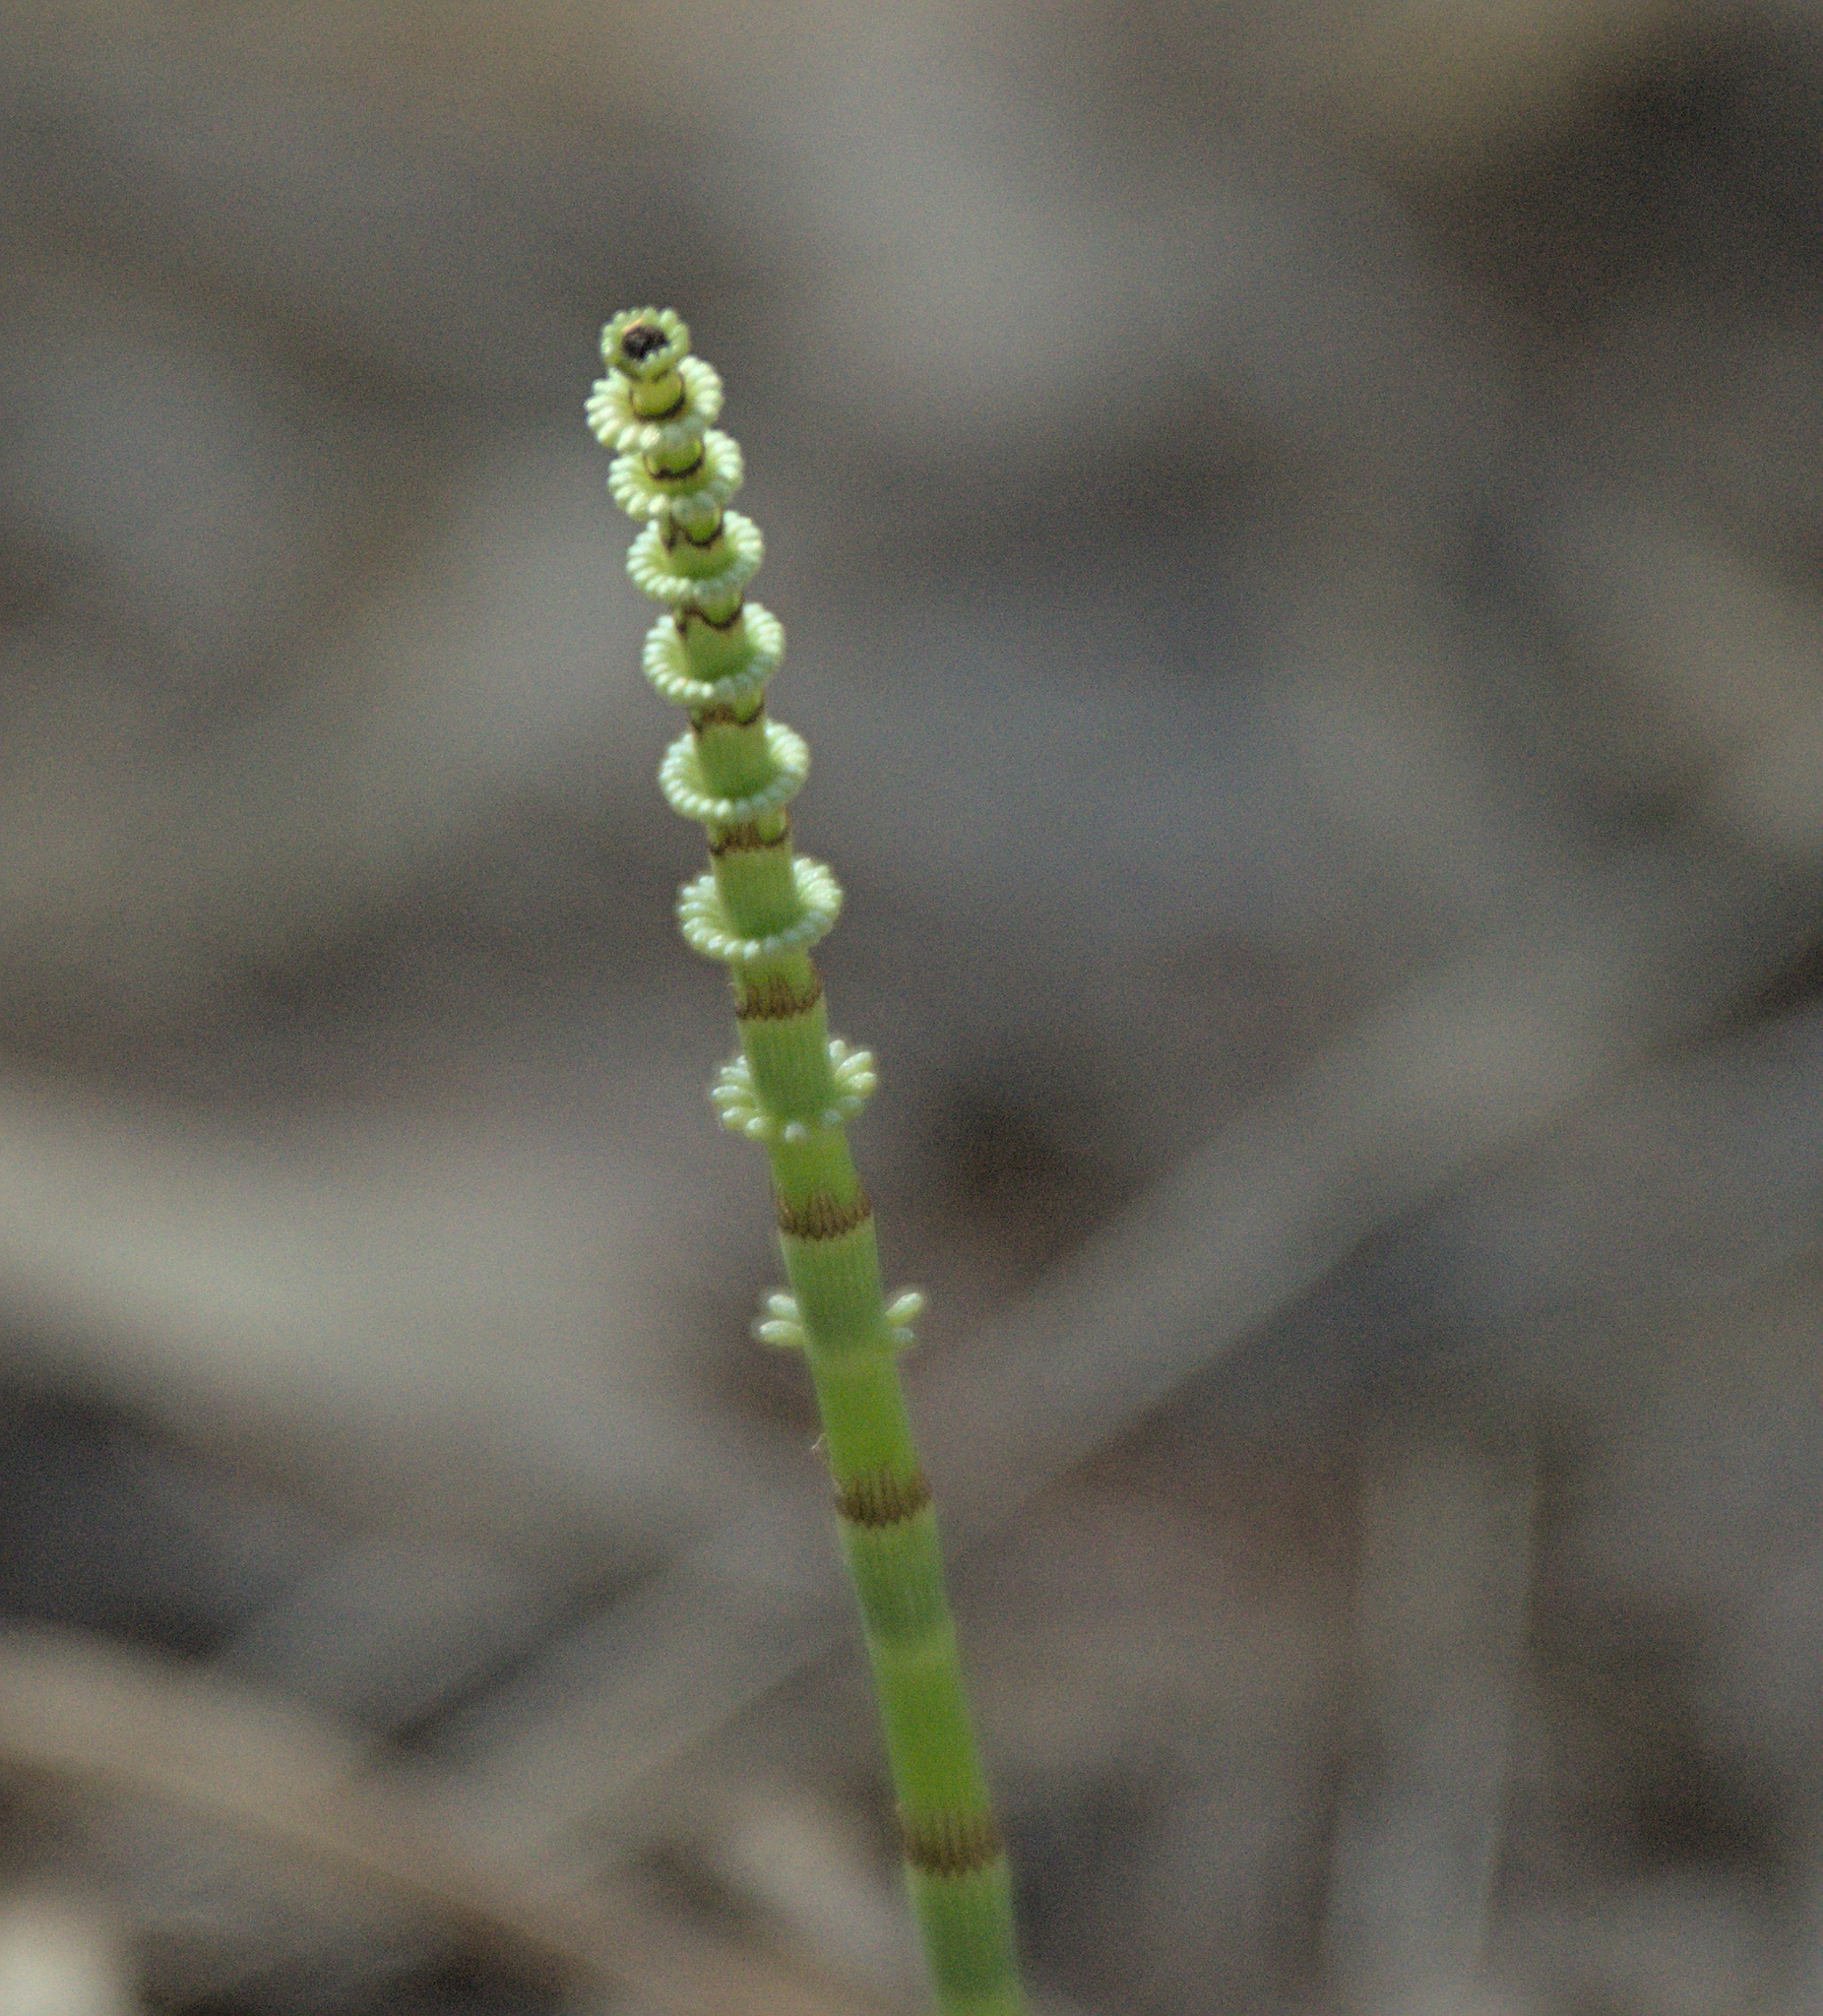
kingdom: Plantae
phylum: Tracheophyta
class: Polypodiopsida
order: Equisetales
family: Equisetaceae
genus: Equisetum
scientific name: Equisetum pratense
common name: Meadow horsetail
